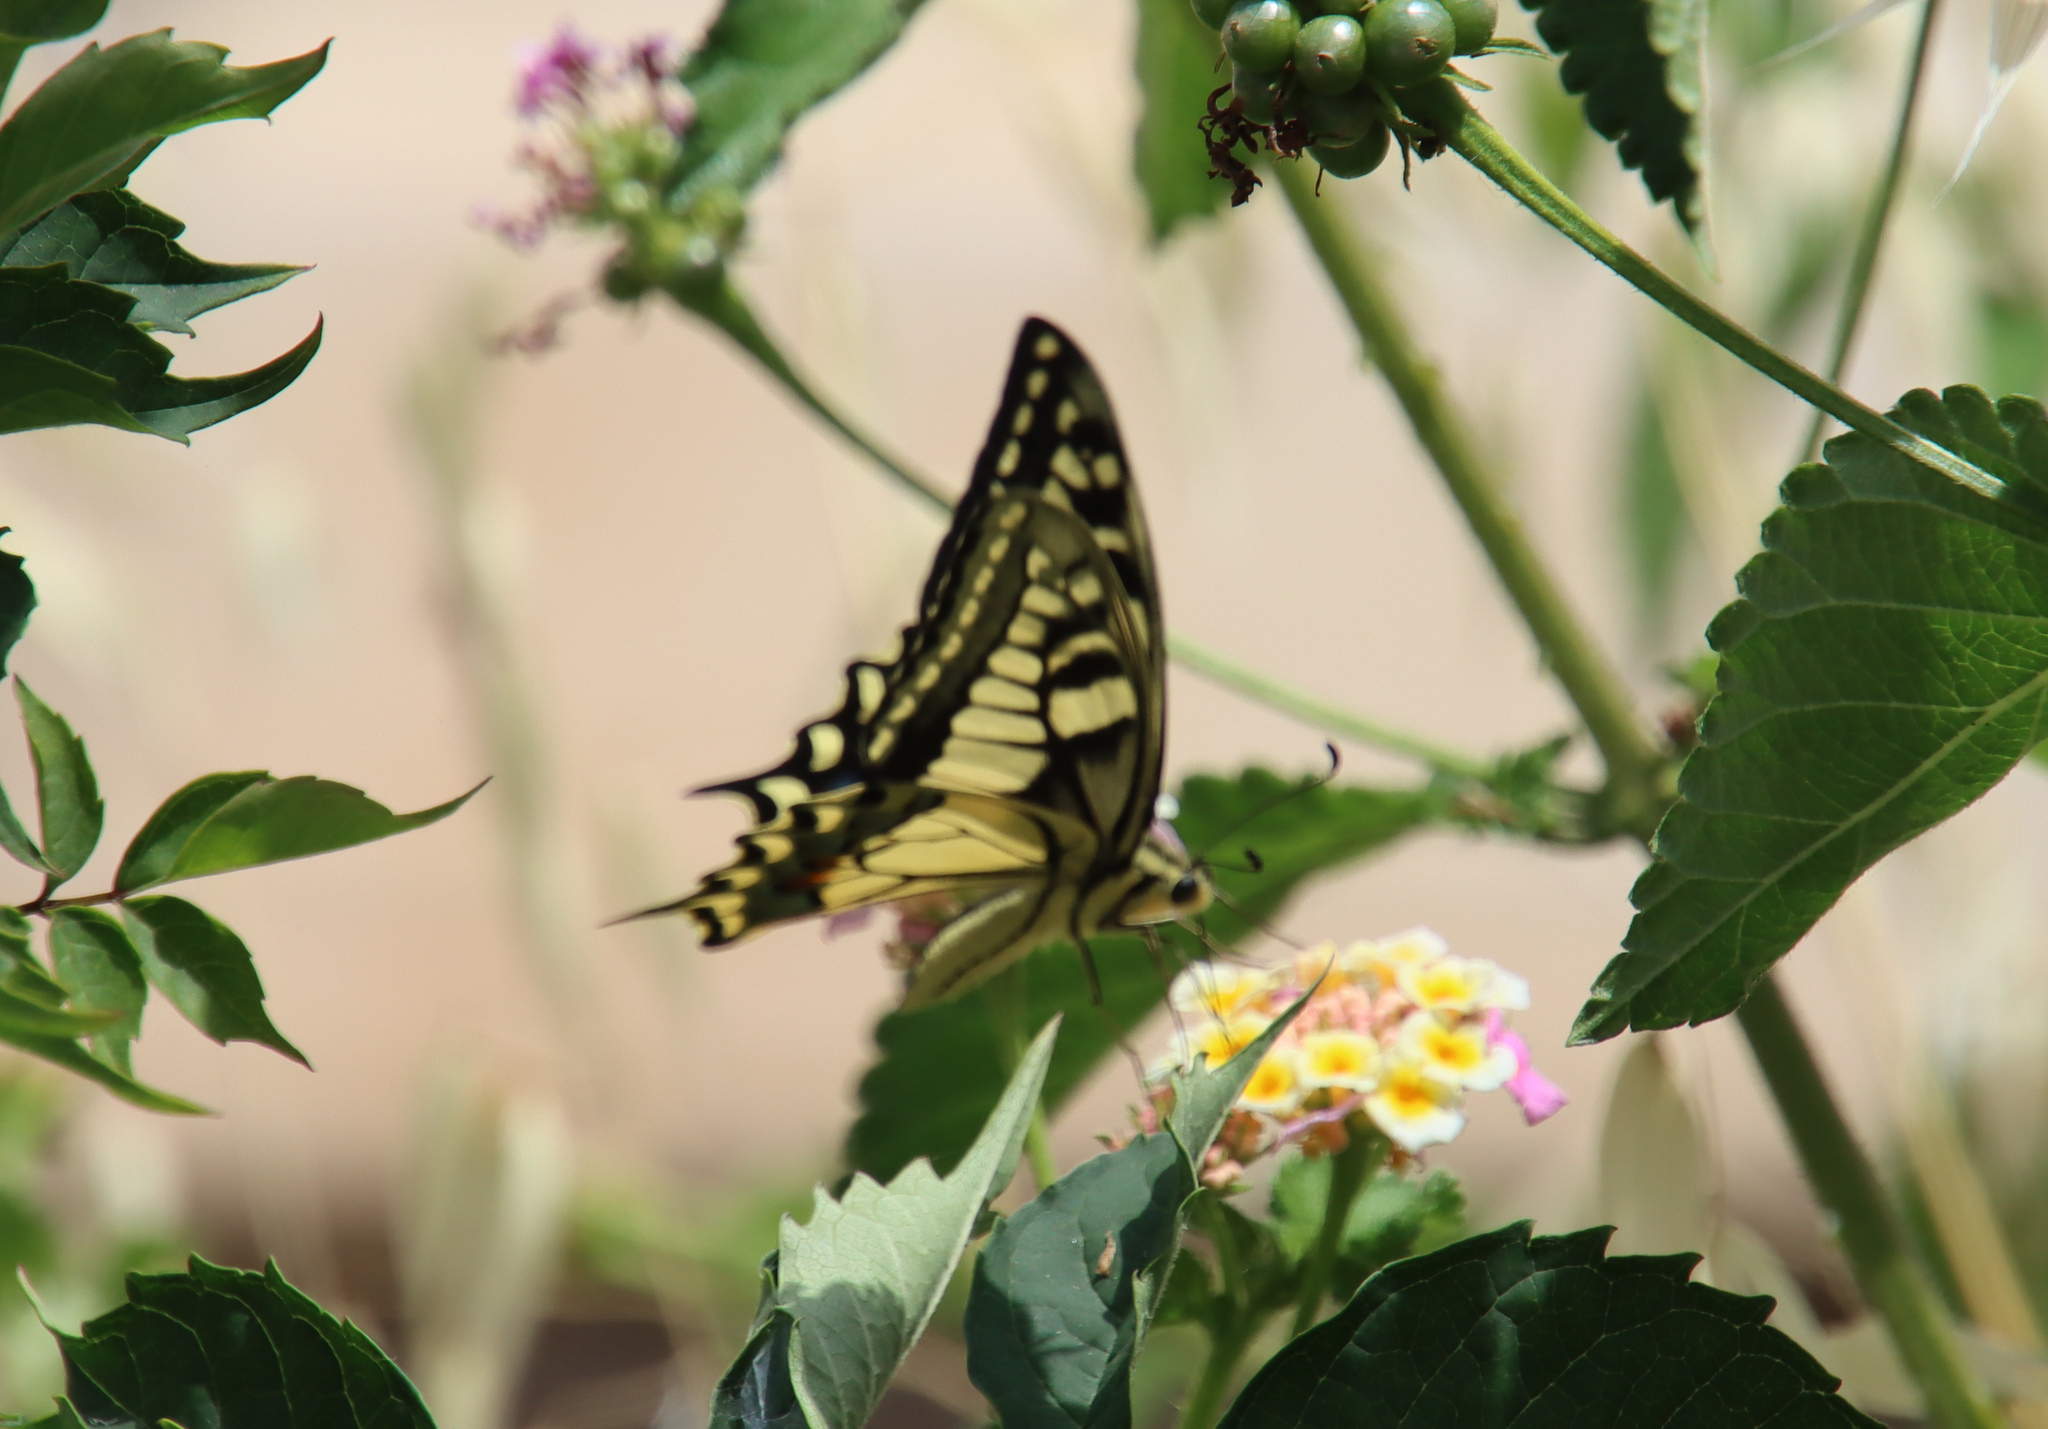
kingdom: Animalia
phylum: Arthropoda
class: Insecta
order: Lepidoptera
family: Papilionidae
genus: Papilio
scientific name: Papilio machaon
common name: Swallowtail
